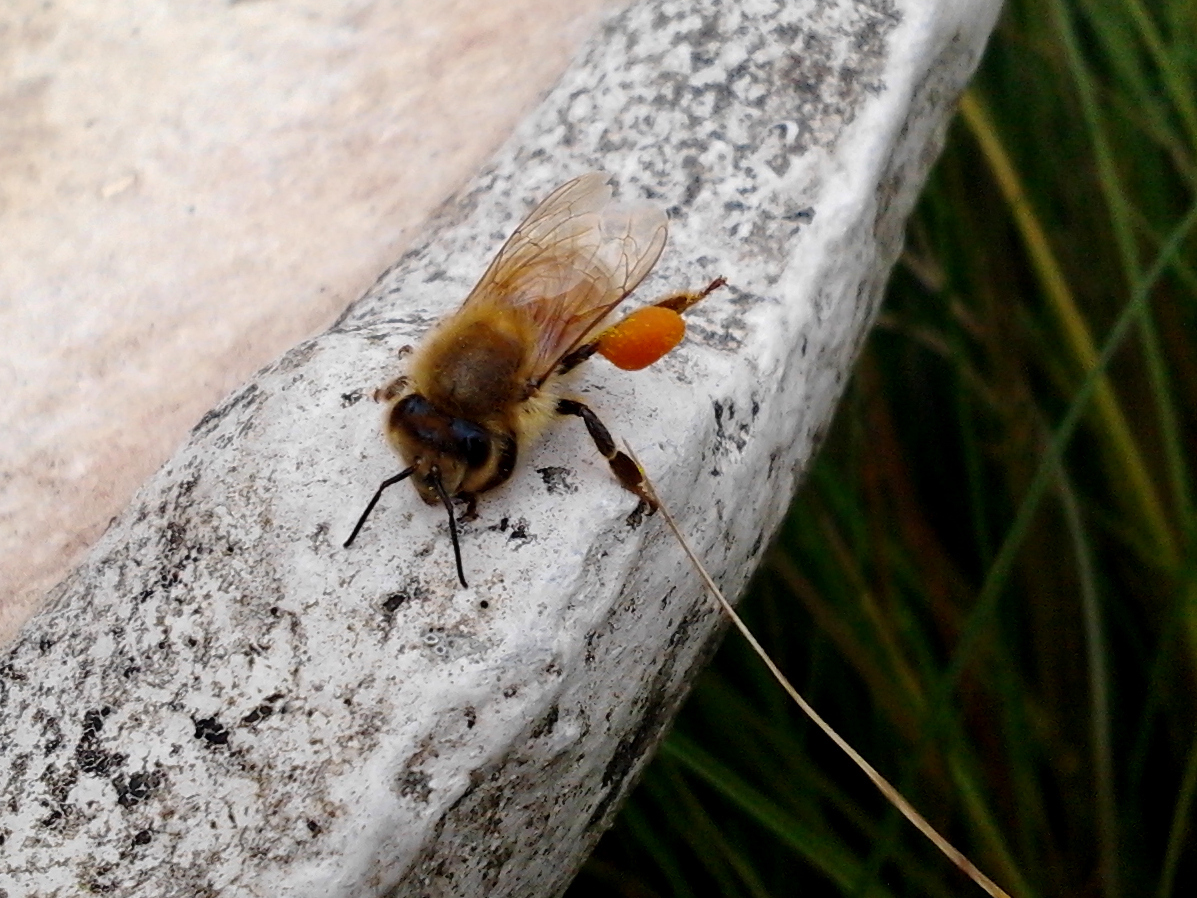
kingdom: Animalia
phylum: Arthropoda
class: Insecta
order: Hymenoptera
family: Apidae
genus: Apis
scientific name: Apis mellifera
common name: Honey bee
